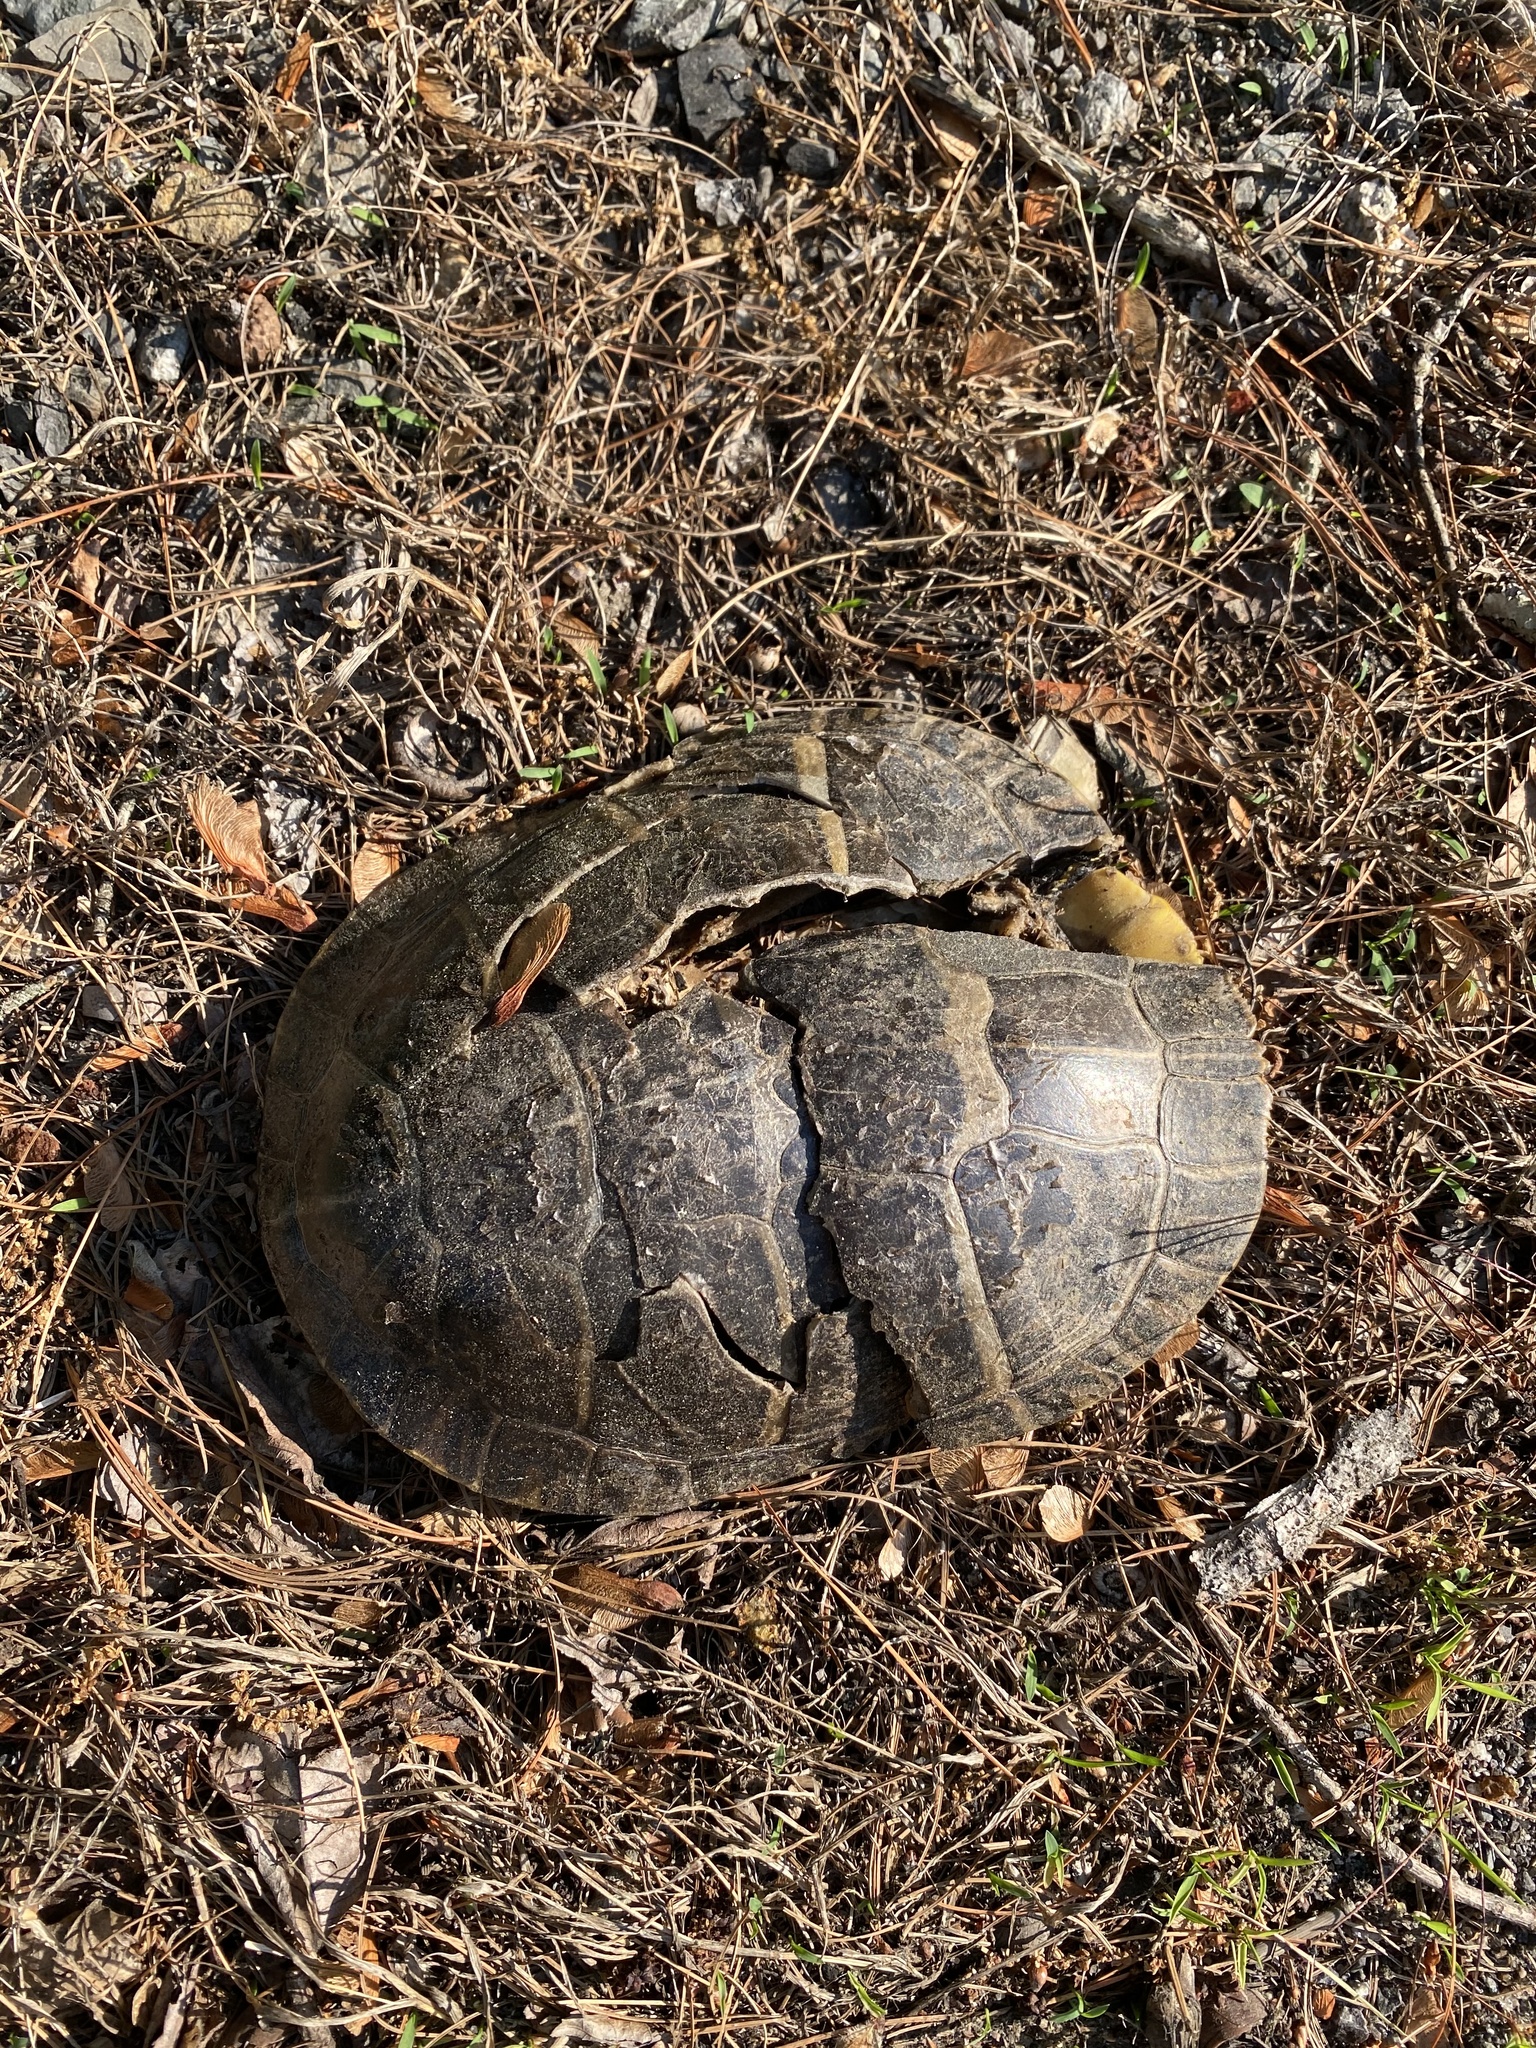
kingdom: Animalia
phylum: Chordata
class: Testudines
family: Emydidae
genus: Chrysemys
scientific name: Chrysemys picta
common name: Painted turtle
